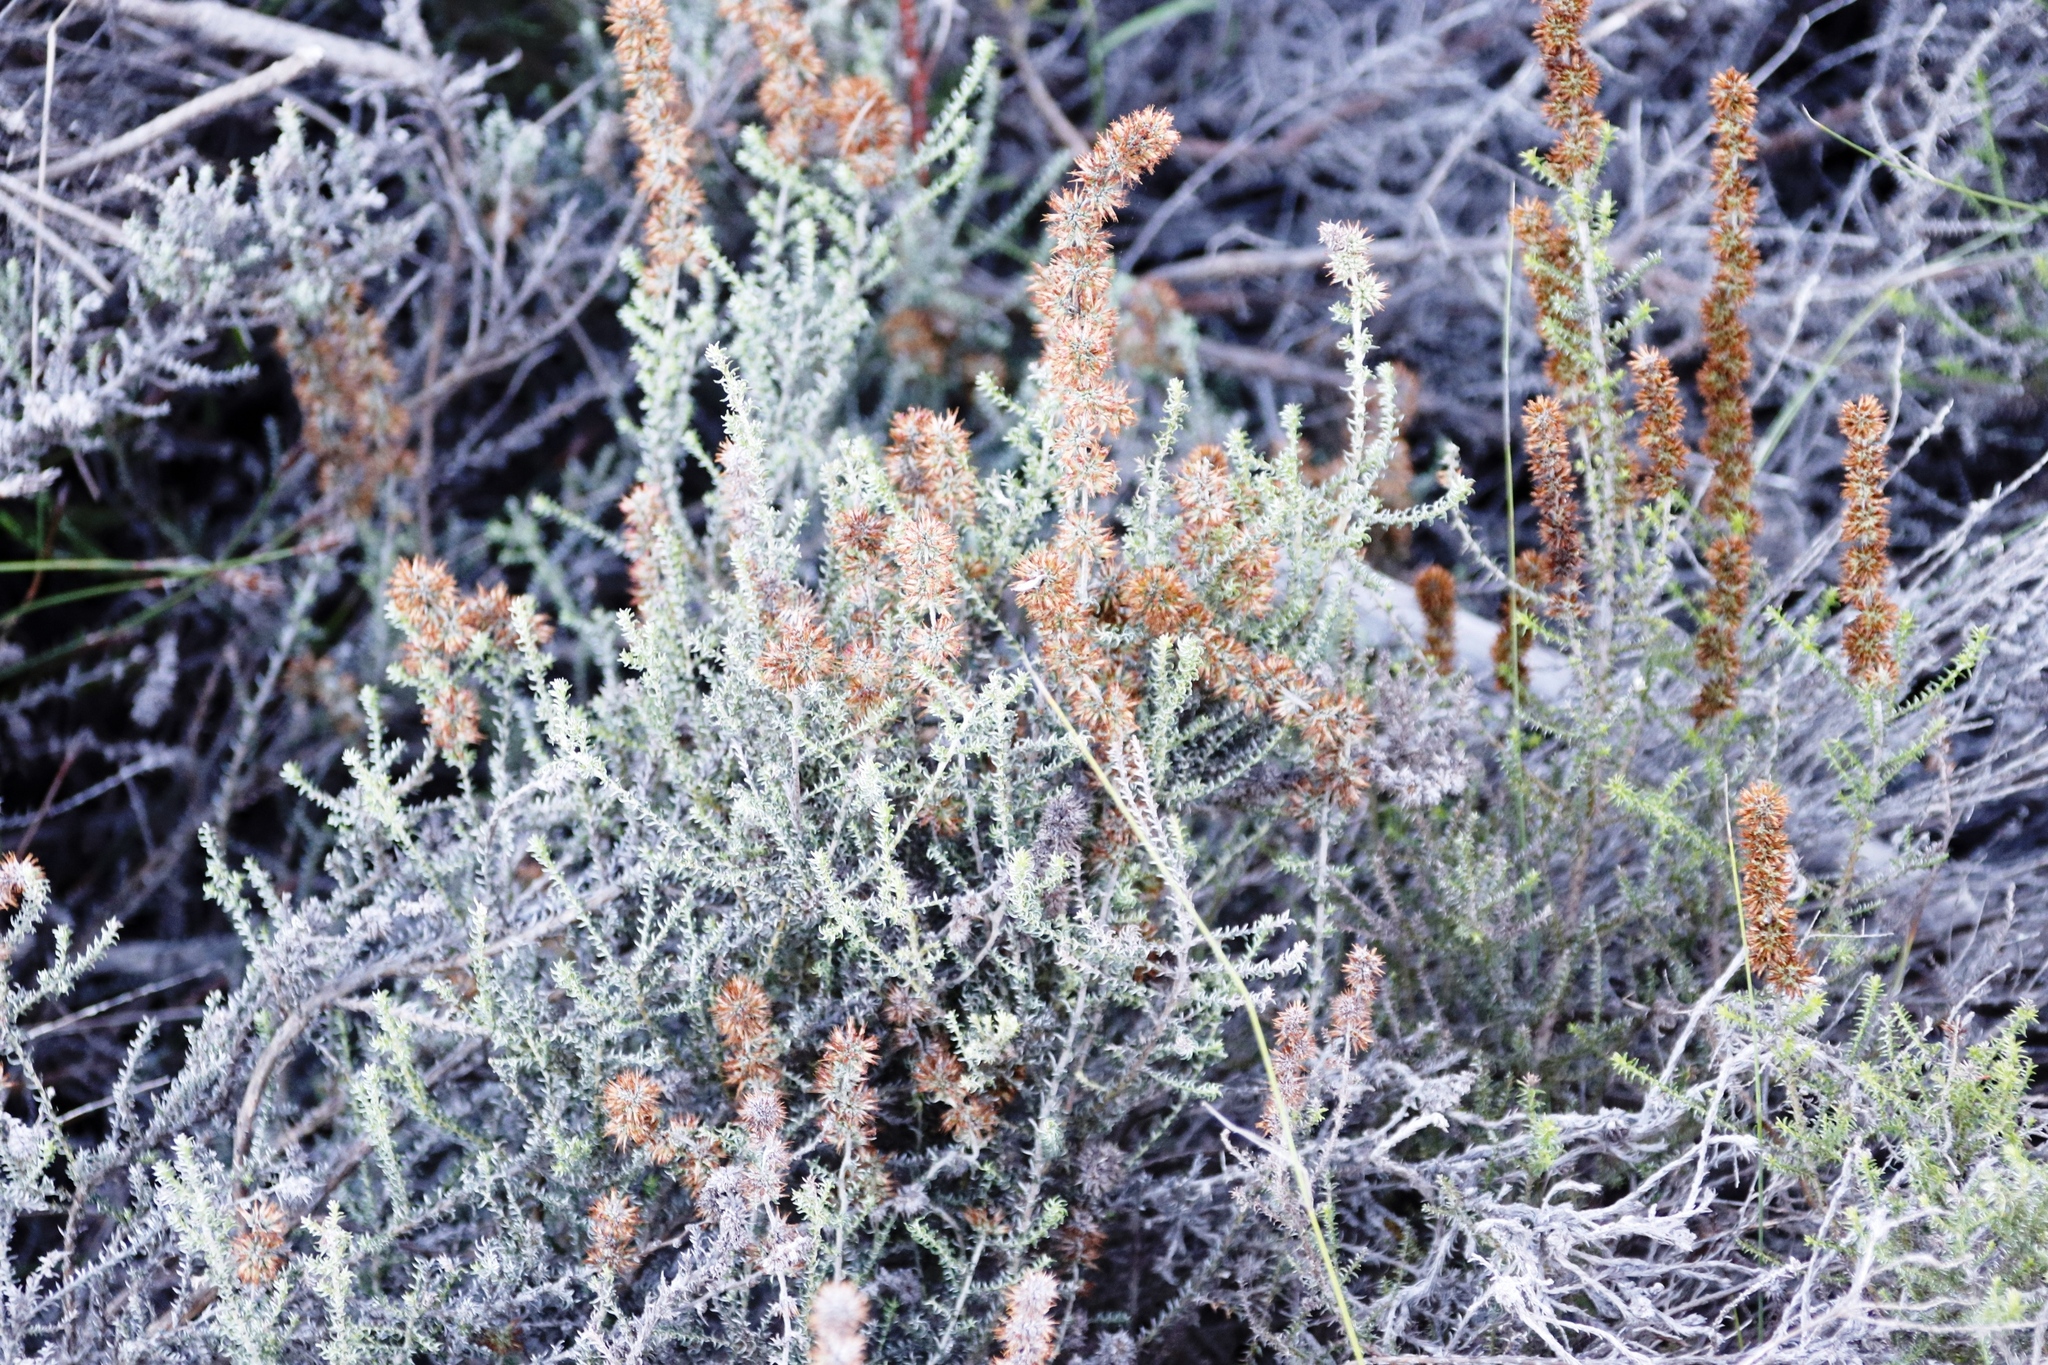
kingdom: Plantae
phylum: Tracheophyta
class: Magnoliopsida
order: Asterales
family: Asteraceae
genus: Seriphium
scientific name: Seriphium cinereum
